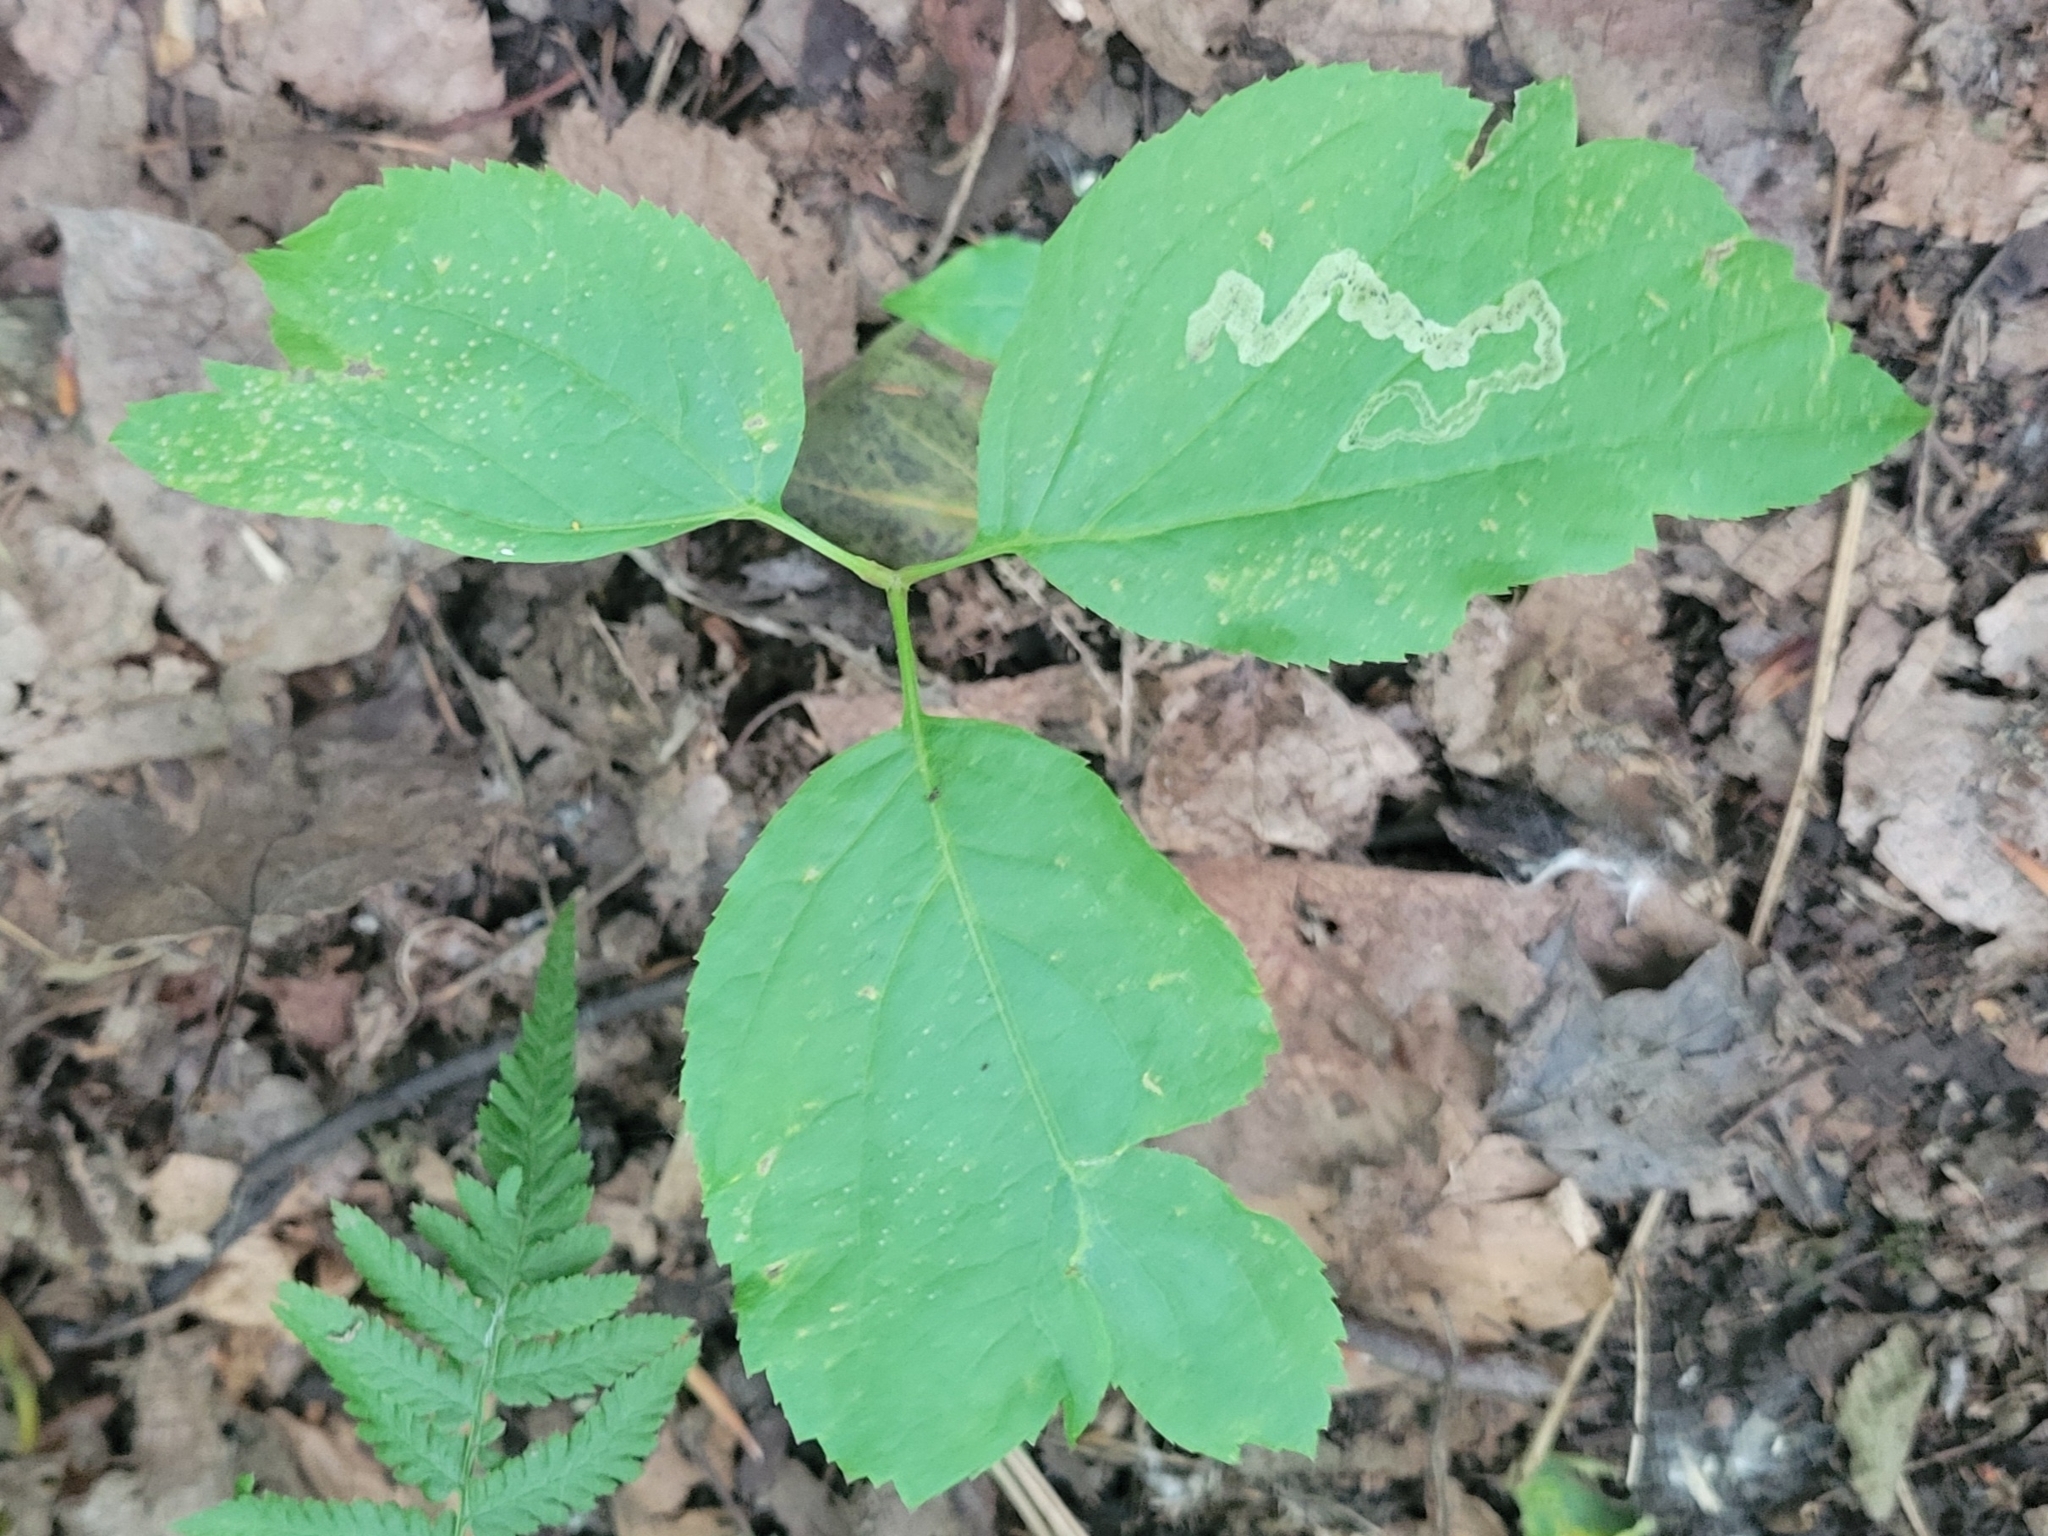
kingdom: Plantae
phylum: Tracheophyta
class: Magnoliopsida
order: Apiales
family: Araliaceae
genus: Aralia
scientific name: Aralia nudicaulis
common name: Wild sarsaparilla
